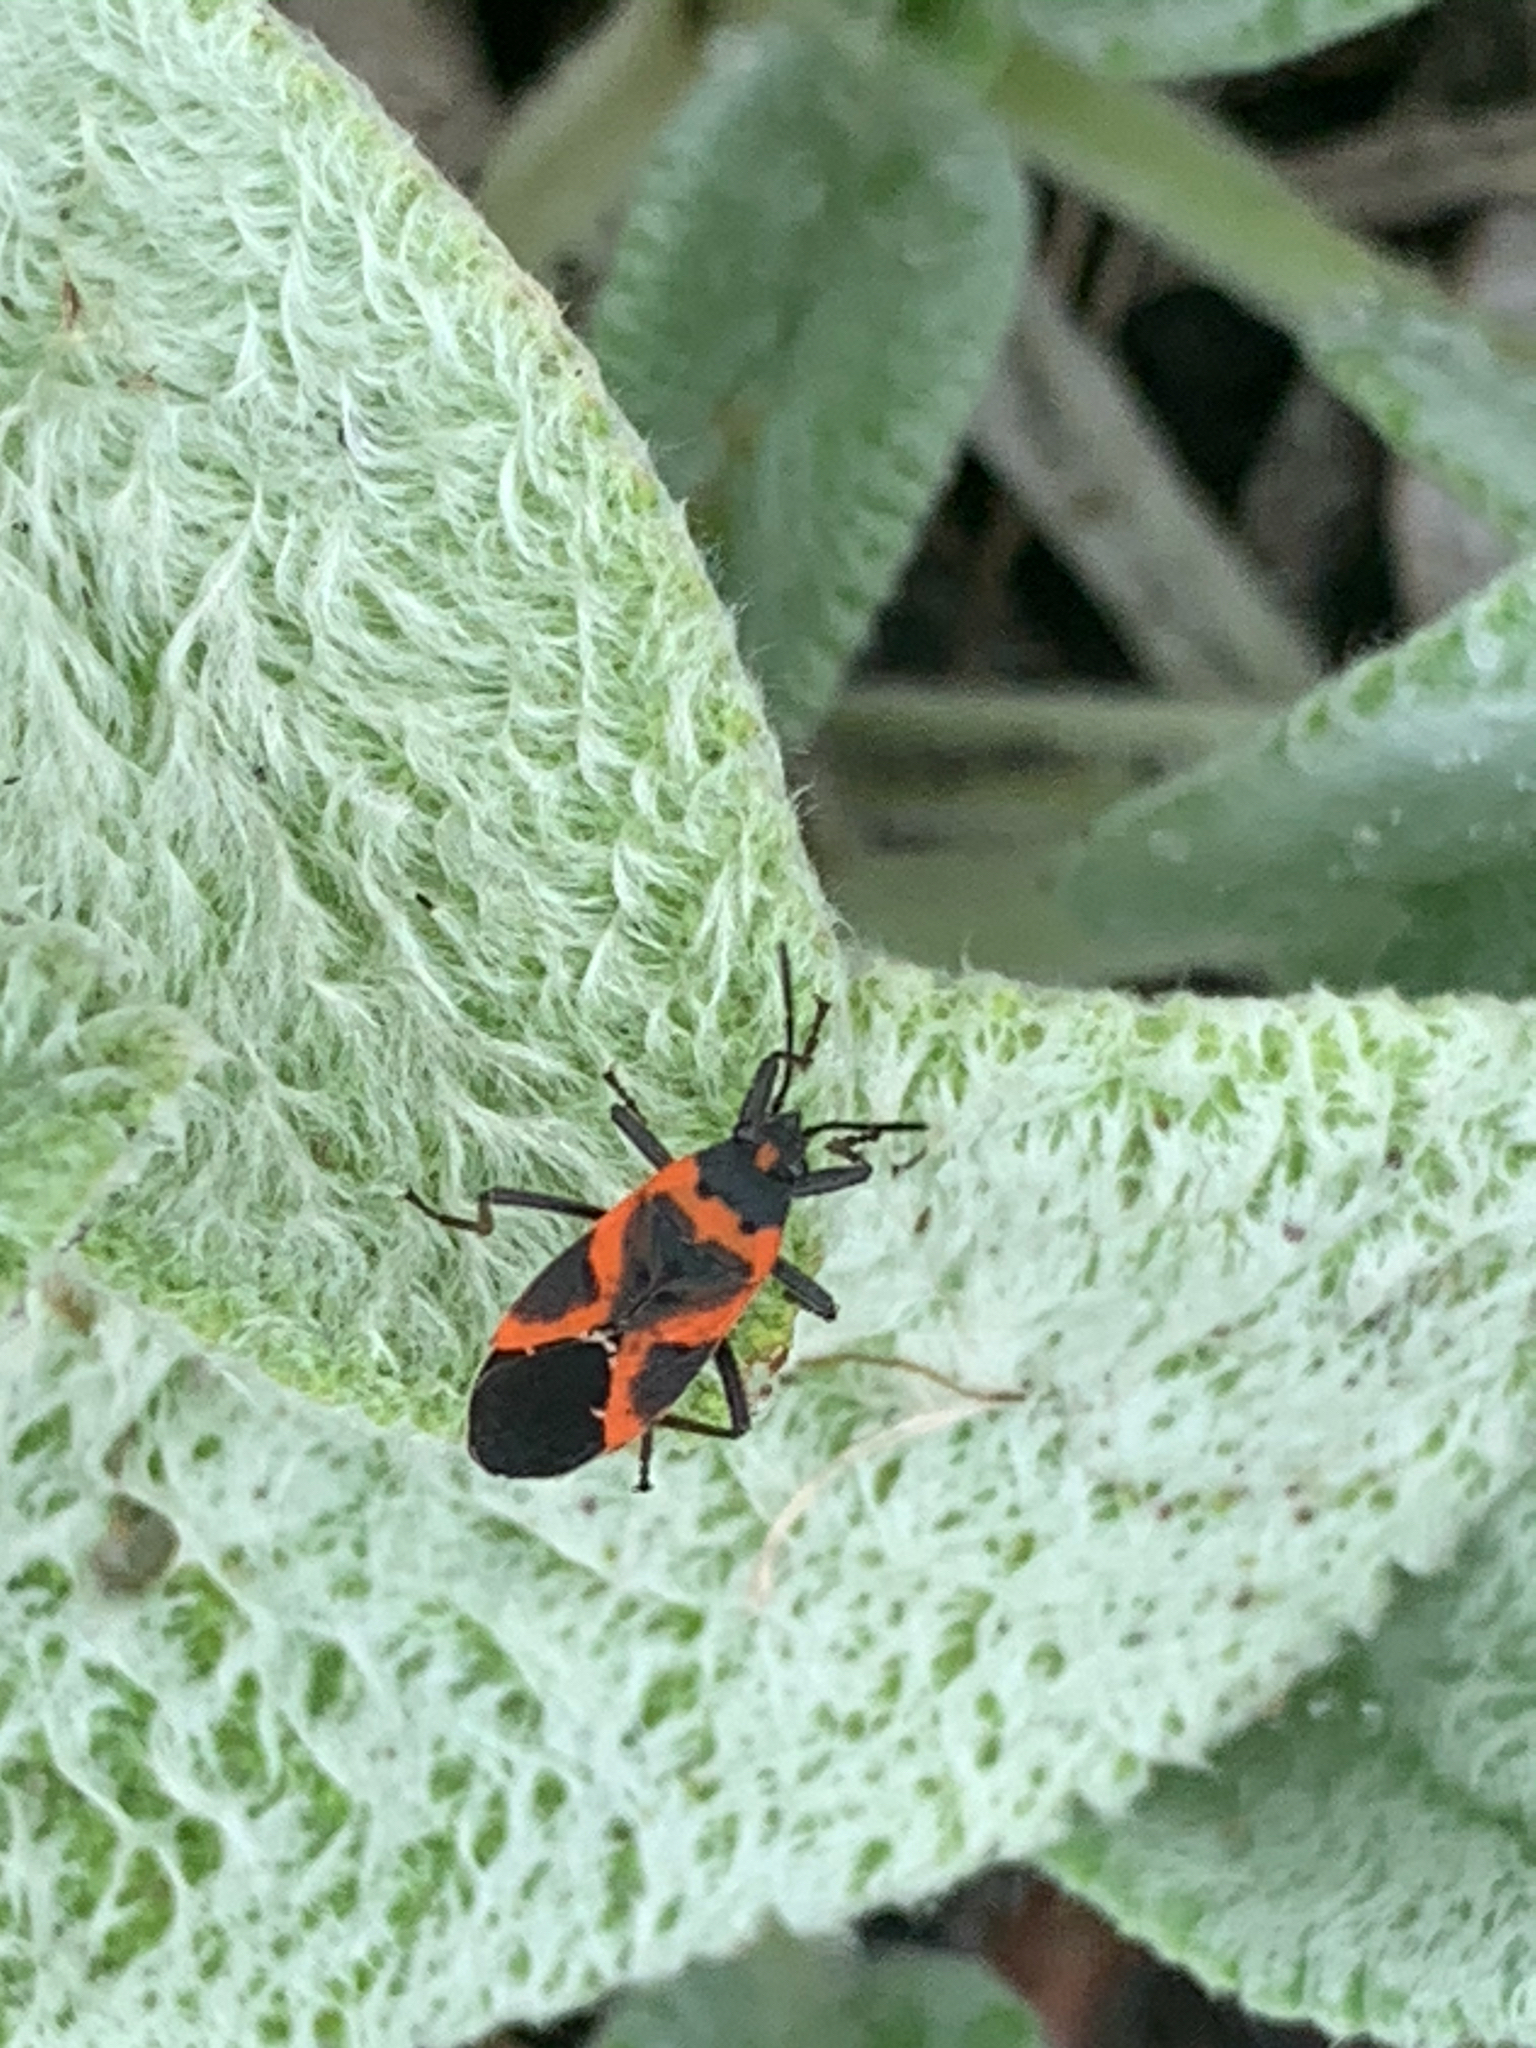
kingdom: Animalia
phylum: Arthropoda
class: Insecta
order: Hemiptera
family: Lygaeidae
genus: Lygaeus
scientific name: Lygaeus kalmii
